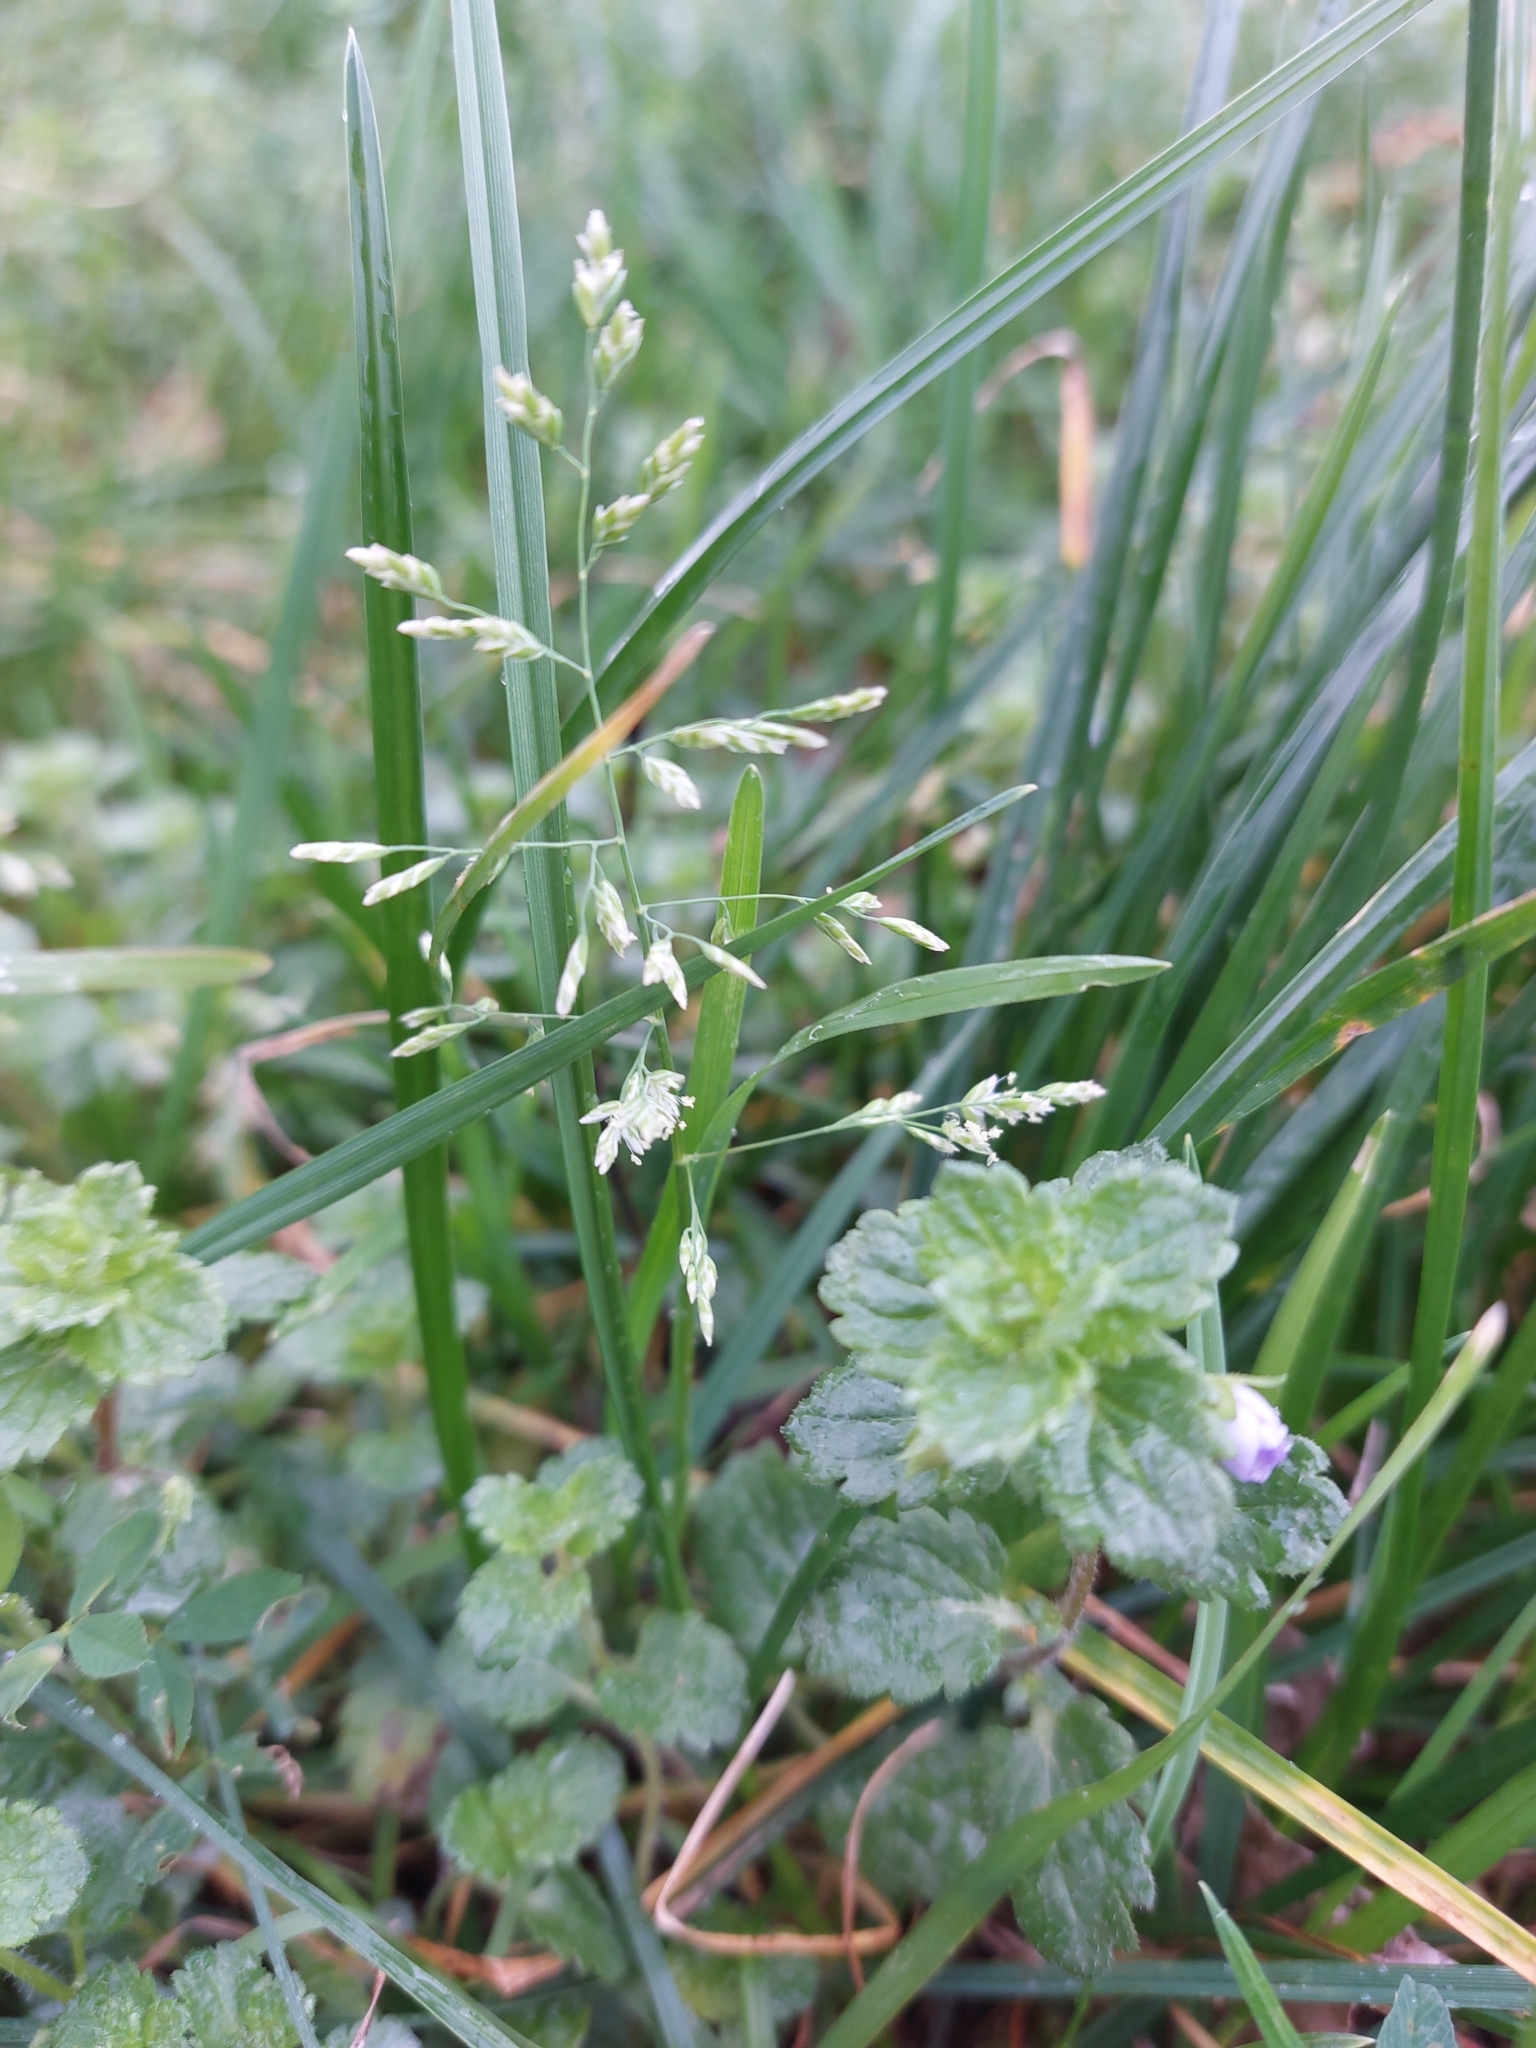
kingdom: Plantae
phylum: Tracheophyta
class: Liliopsida
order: Poales
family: Poaceae
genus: Poa
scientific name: Poa annua
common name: Annual bluegrass
